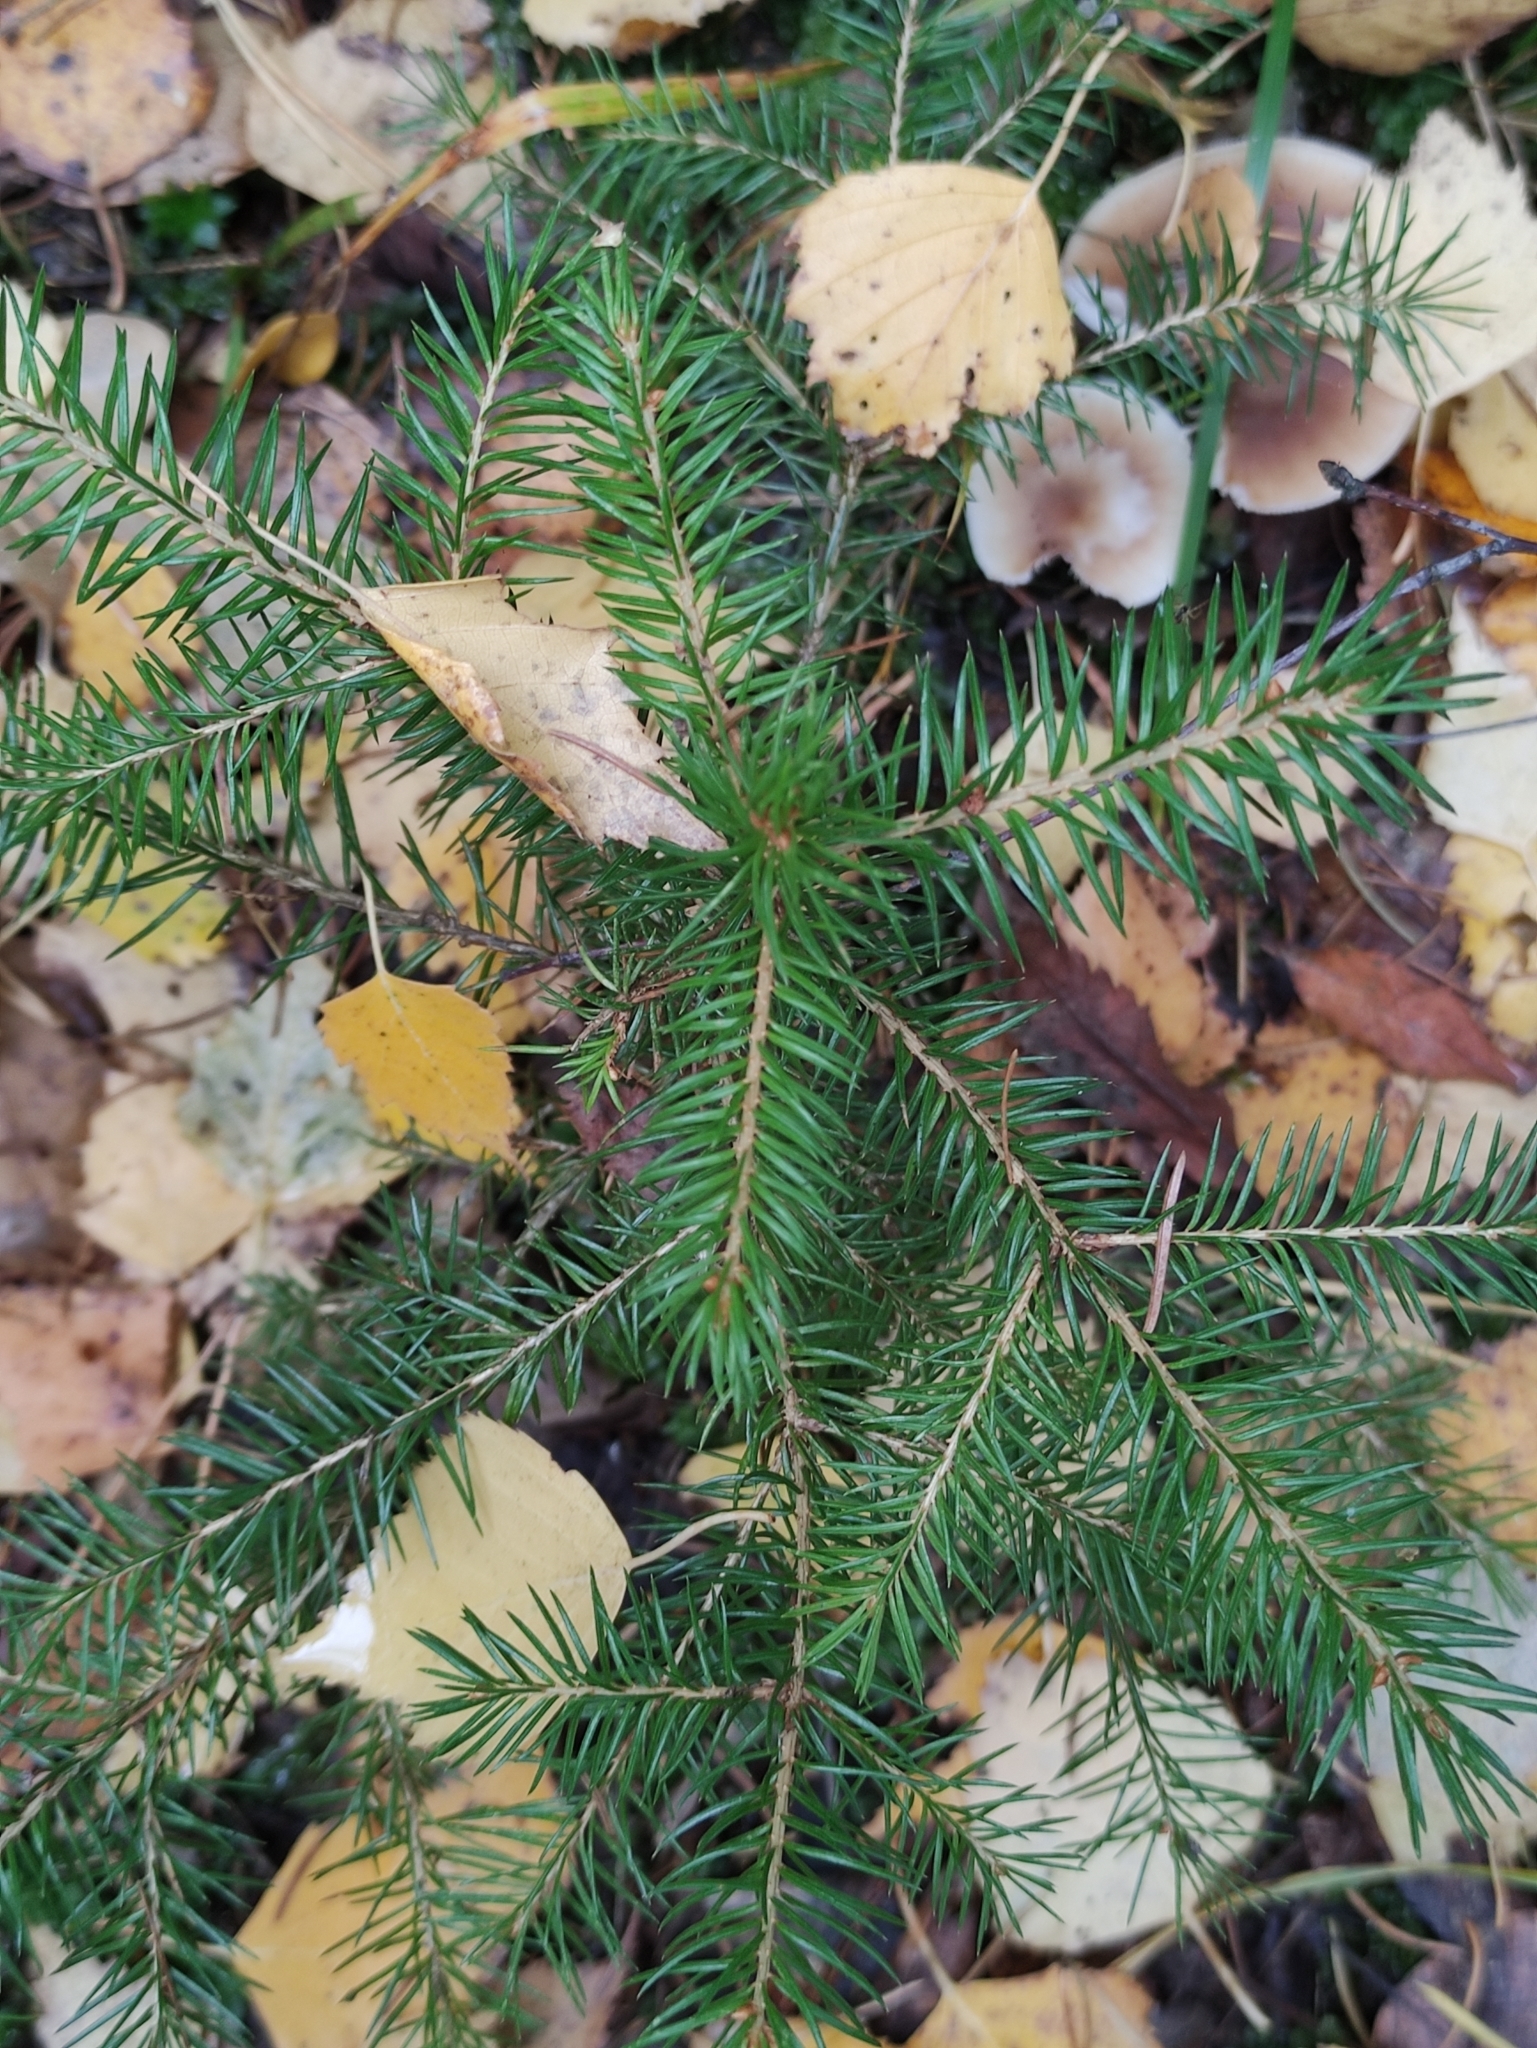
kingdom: Plantae
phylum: Tracheophyta
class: Pinopsida
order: Pinales
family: Pinaceae
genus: Picea
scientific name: Picea abies
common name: Norway spruce
